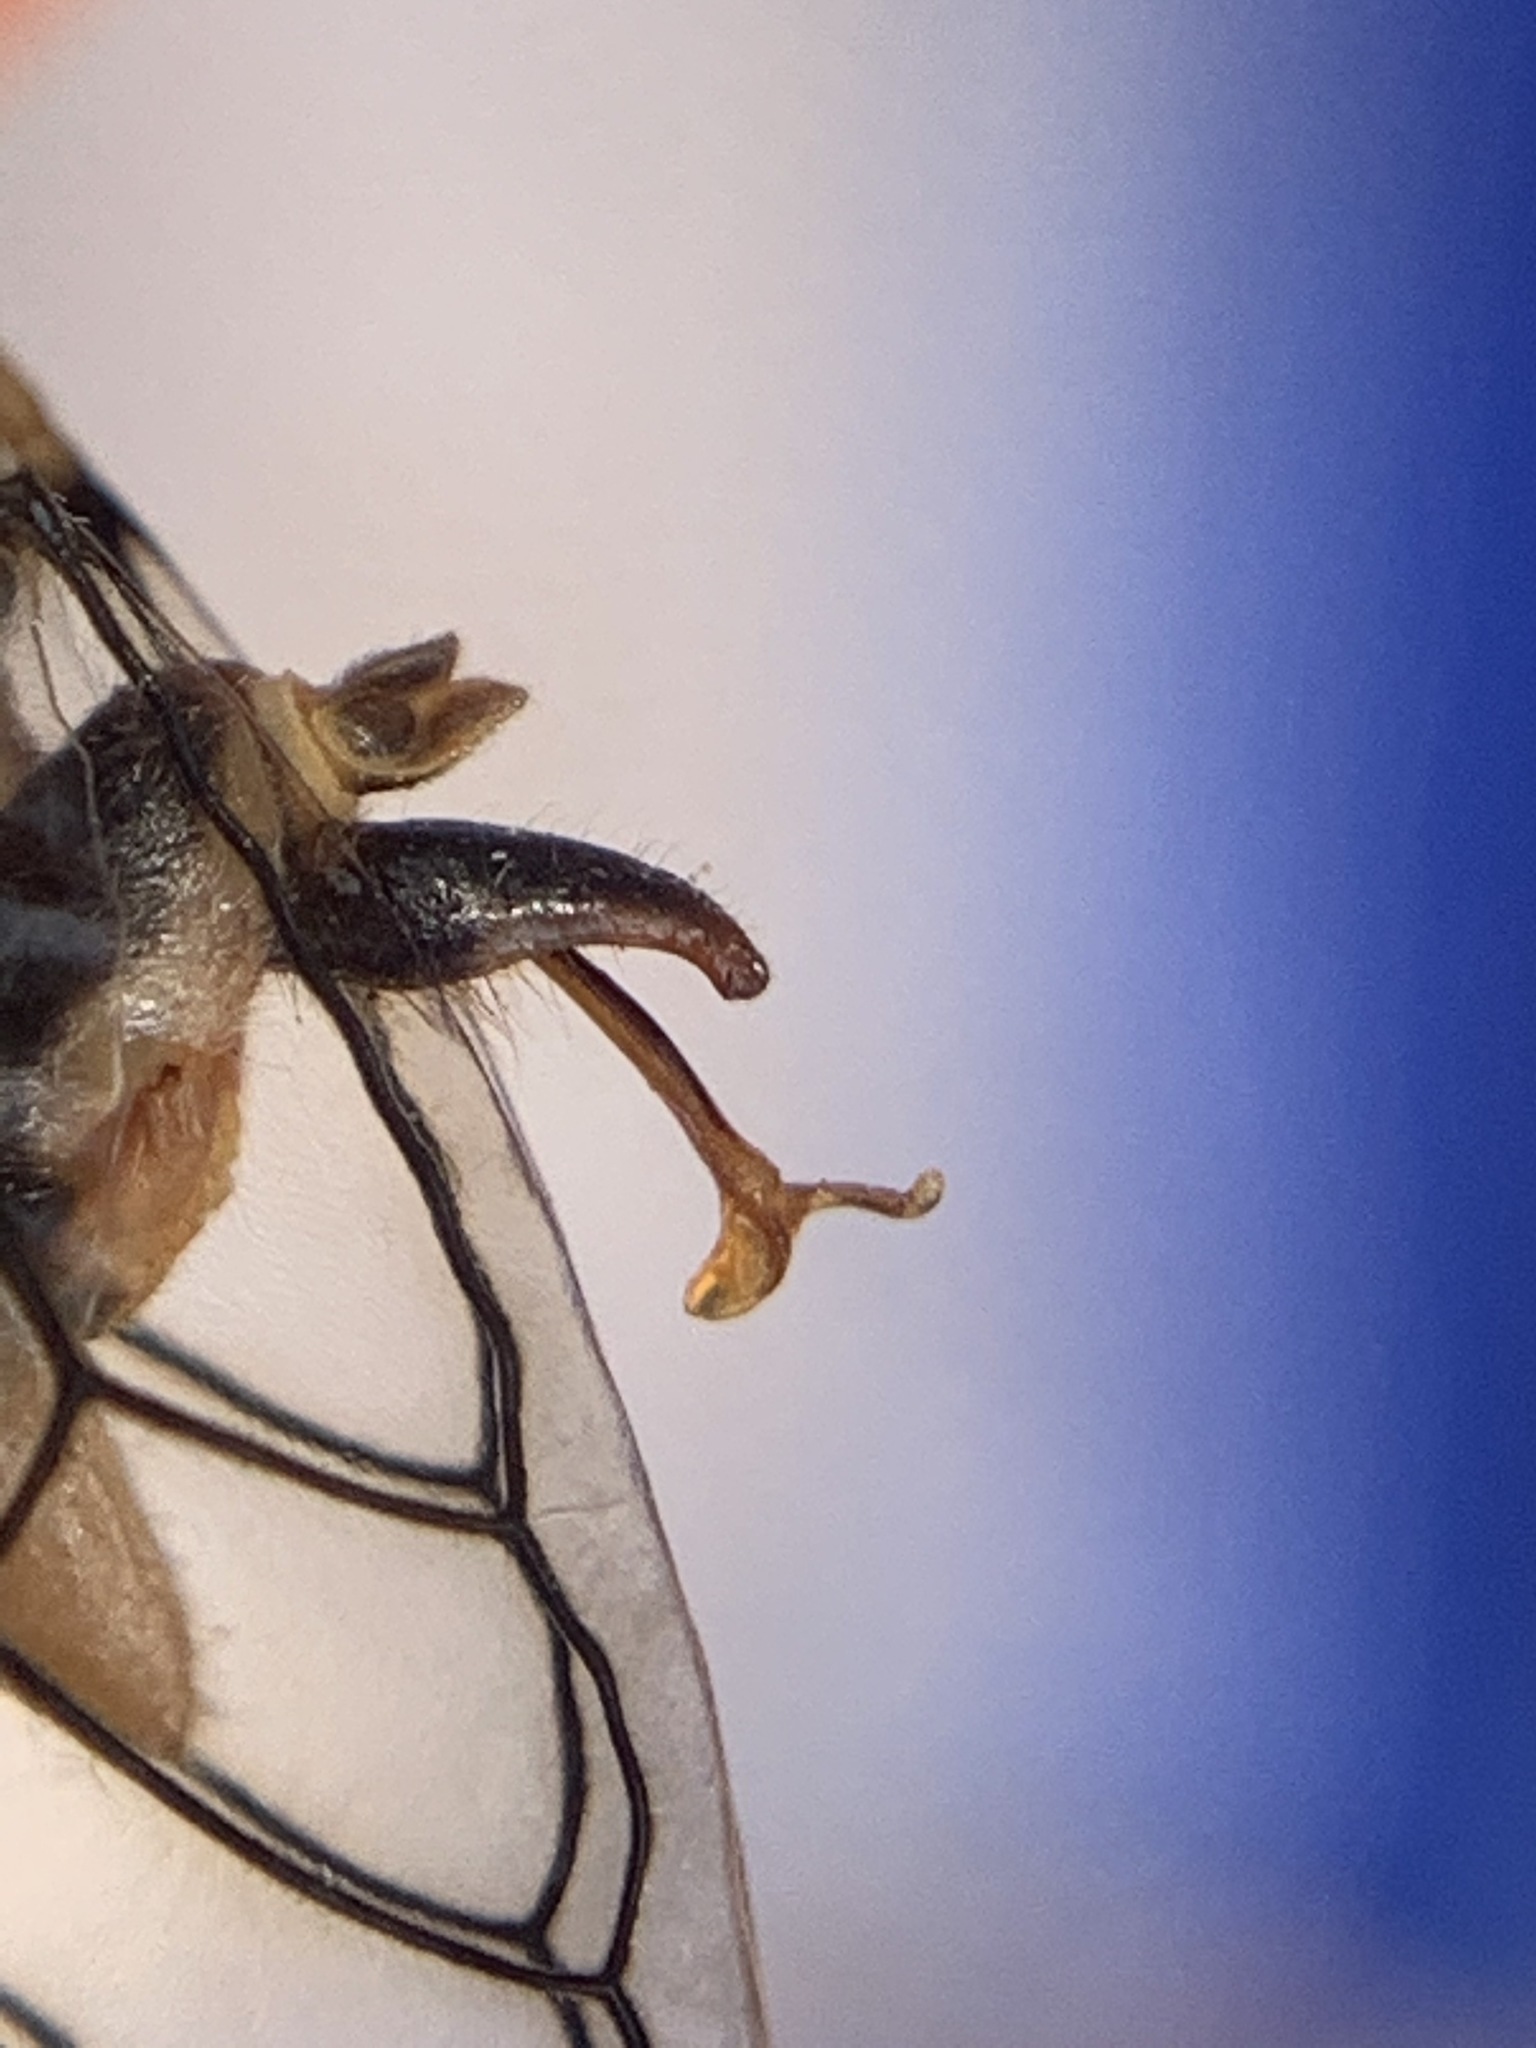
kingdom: Animalia
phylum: Arthropoda
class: Insecta
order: Hemiptera
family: Cicadidae
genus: Clidophleps
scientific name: Clidophleps distanti
